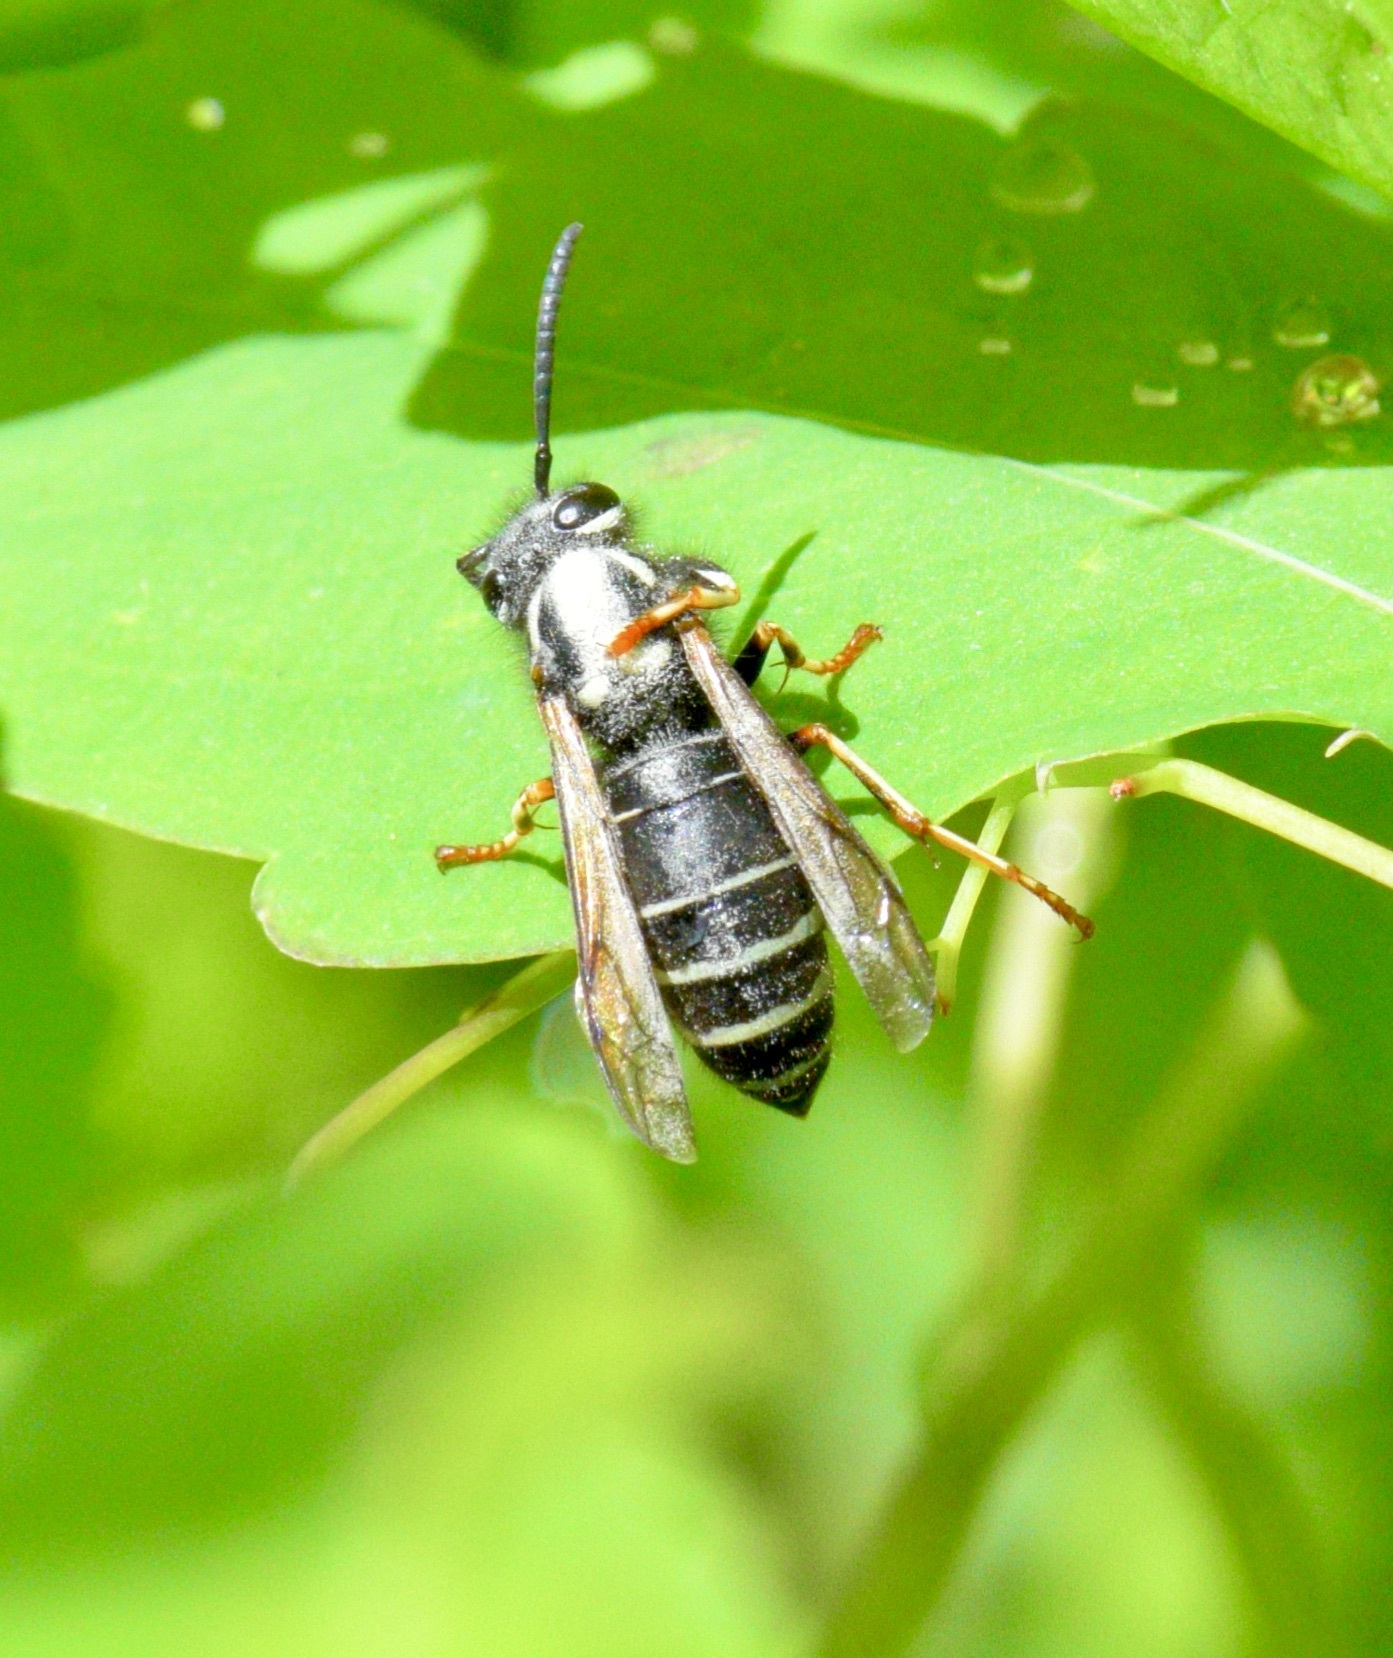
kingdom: Animalia
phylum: Arthropoda
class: Insecta
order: Hymenoptera
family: Vespidae
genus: Vespula
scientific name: Vespula consobrina
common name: Blackjacket
